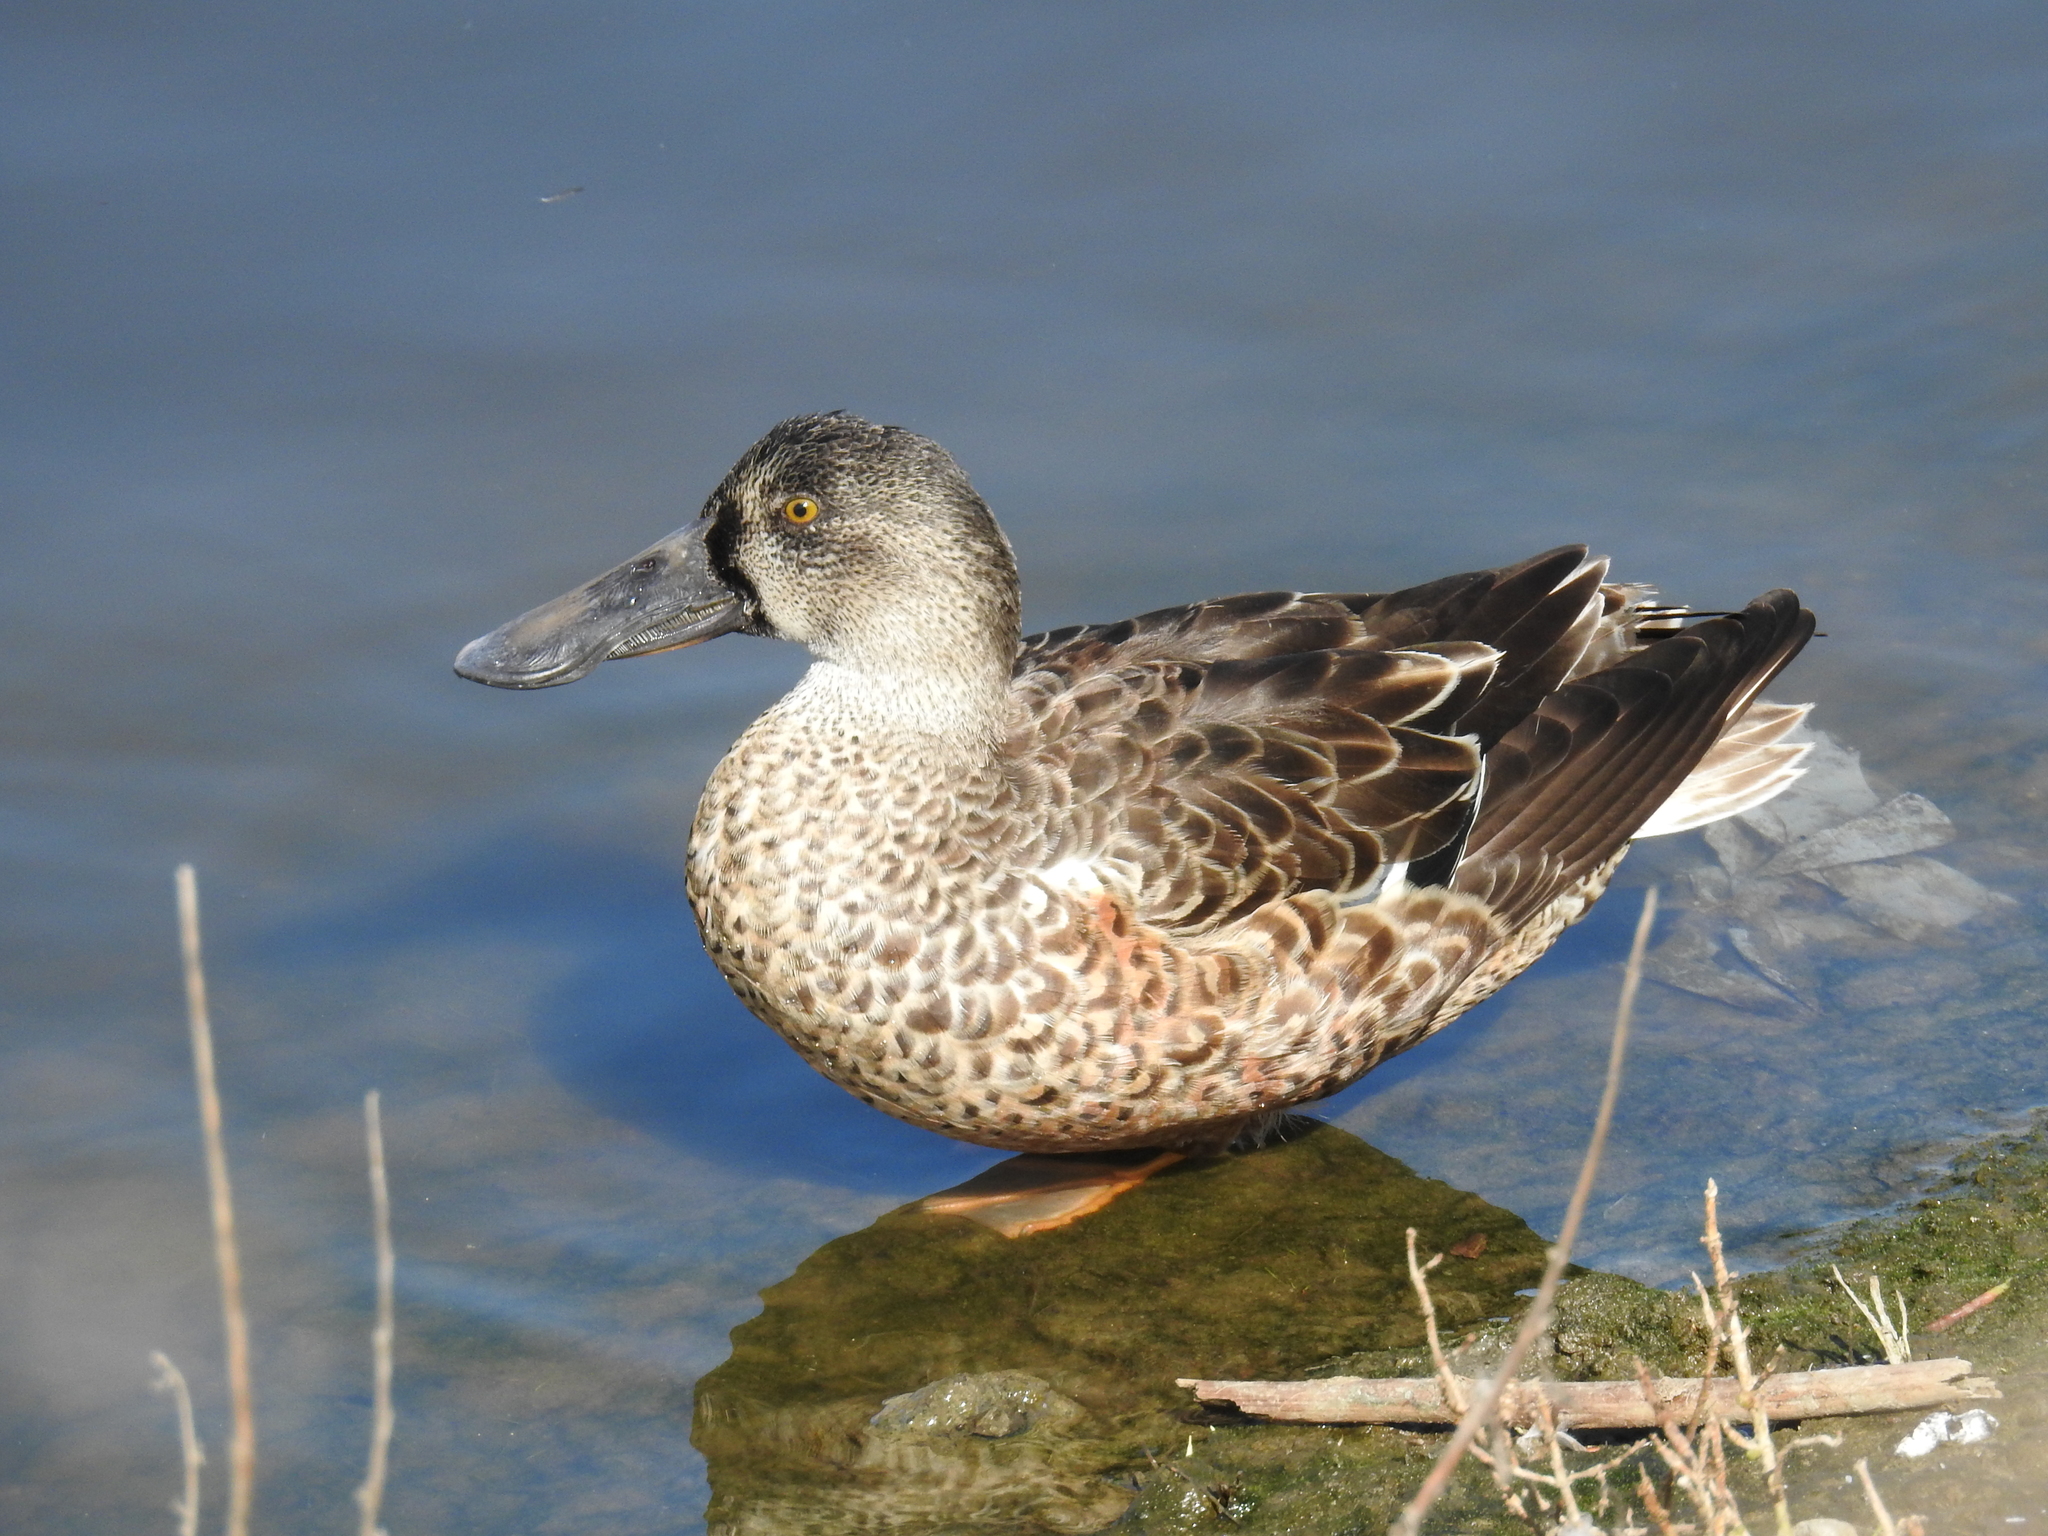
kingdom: Animalia
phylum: Chordata
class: Aves
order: Anseriformes
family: Anatidae
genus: Spatula
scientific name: Spatula clypeata
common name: Northern shoveler
